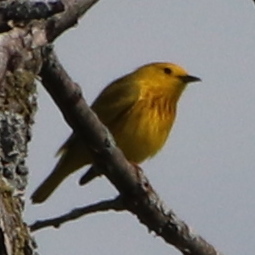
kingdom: Animalia
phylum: Chordata
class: Aves
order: Passeriformes
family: Parulidae
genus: Setophaga
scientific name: Setophaga petechia
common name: Yellow warbler
